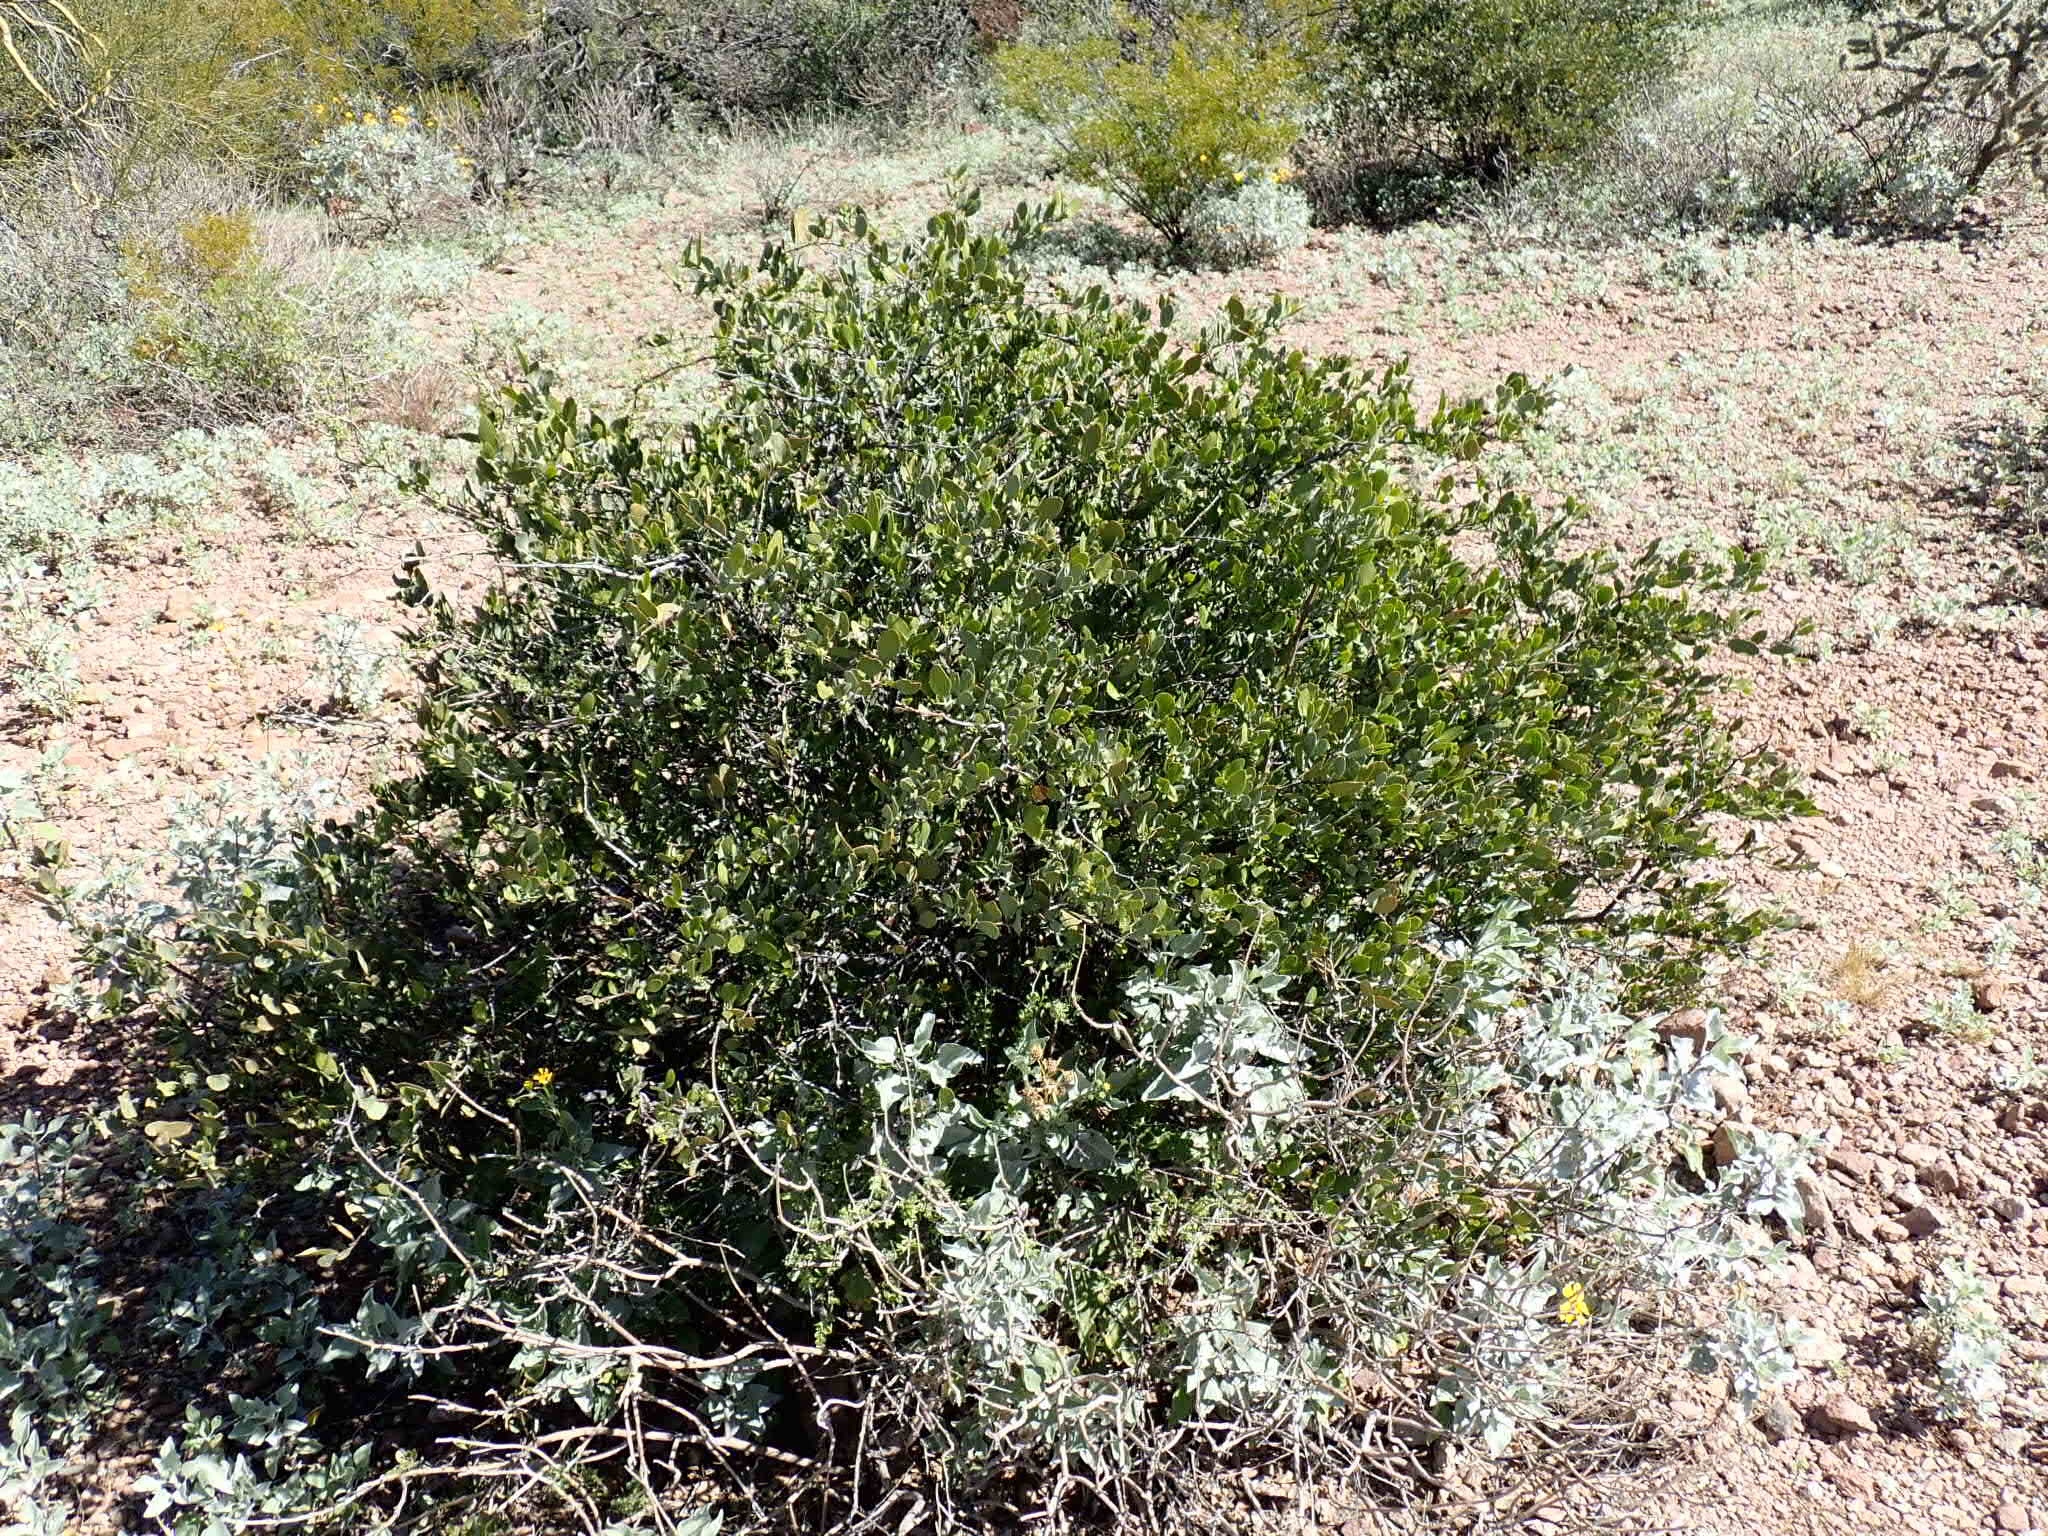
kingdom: Plantae
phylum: Tracheophyta
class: Magnoliopsida
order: Caryophyllales
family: Simmondsiaceae
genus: Simmondsia
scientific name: Simmondsia chinensis
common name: Jojoba
